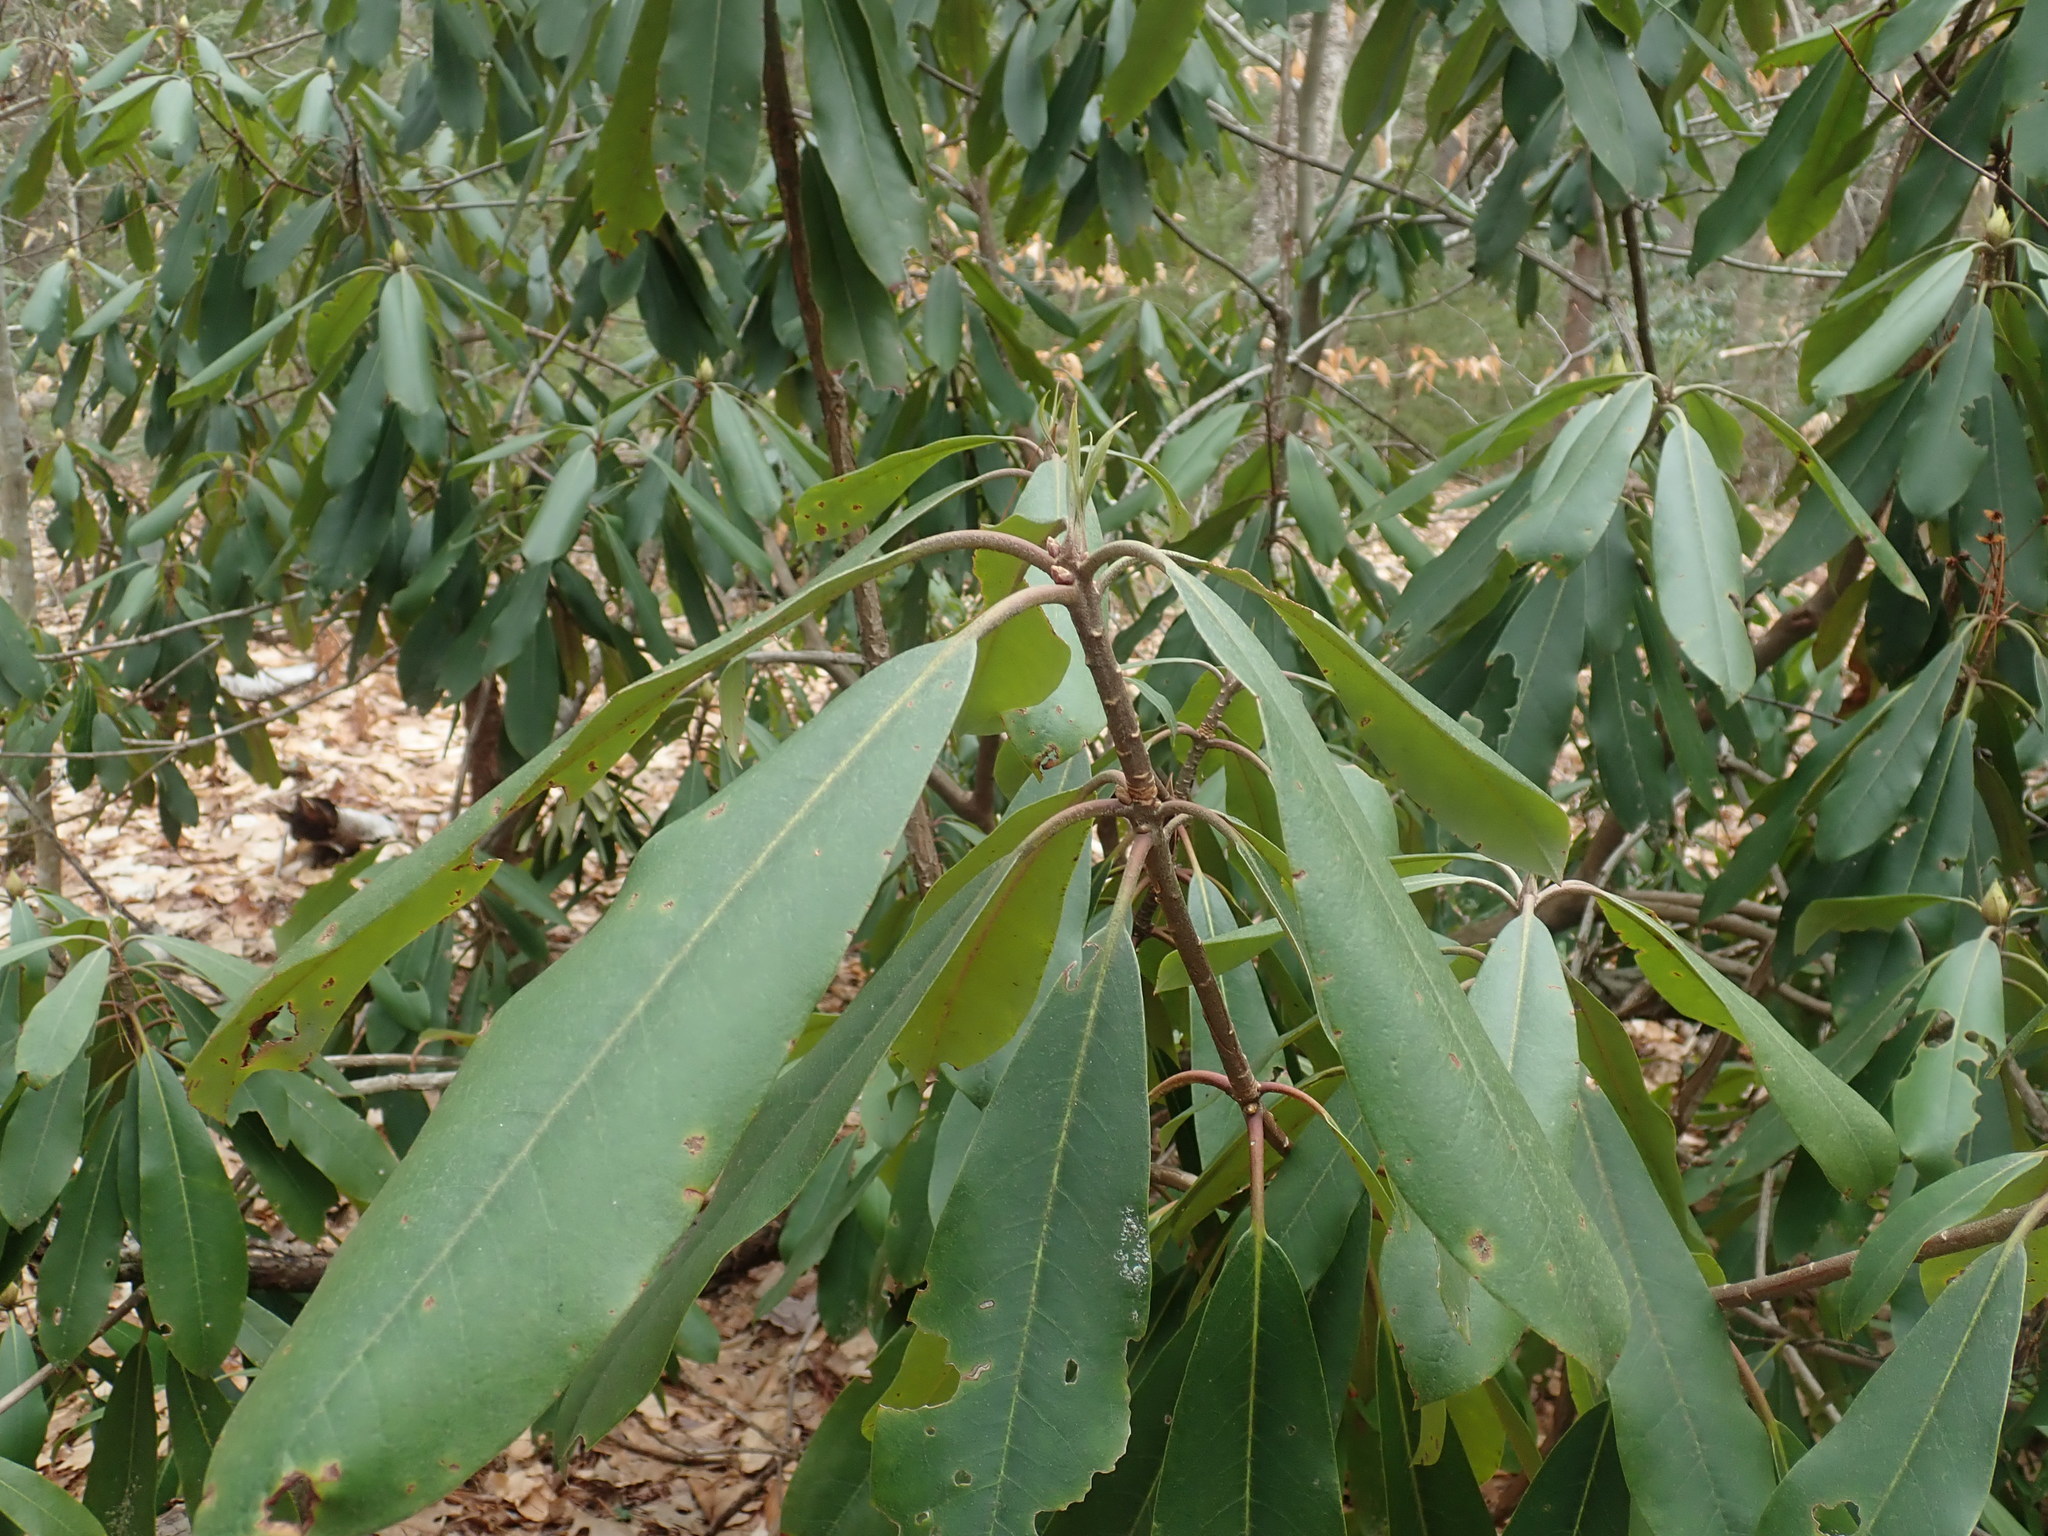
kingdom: Plantae
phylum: Tracheophyta
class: Magnoliopsida
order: Ericales
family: Ericaceae
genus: Rhododendron
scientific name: Rhododendron maximum
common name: Great rhododendron
